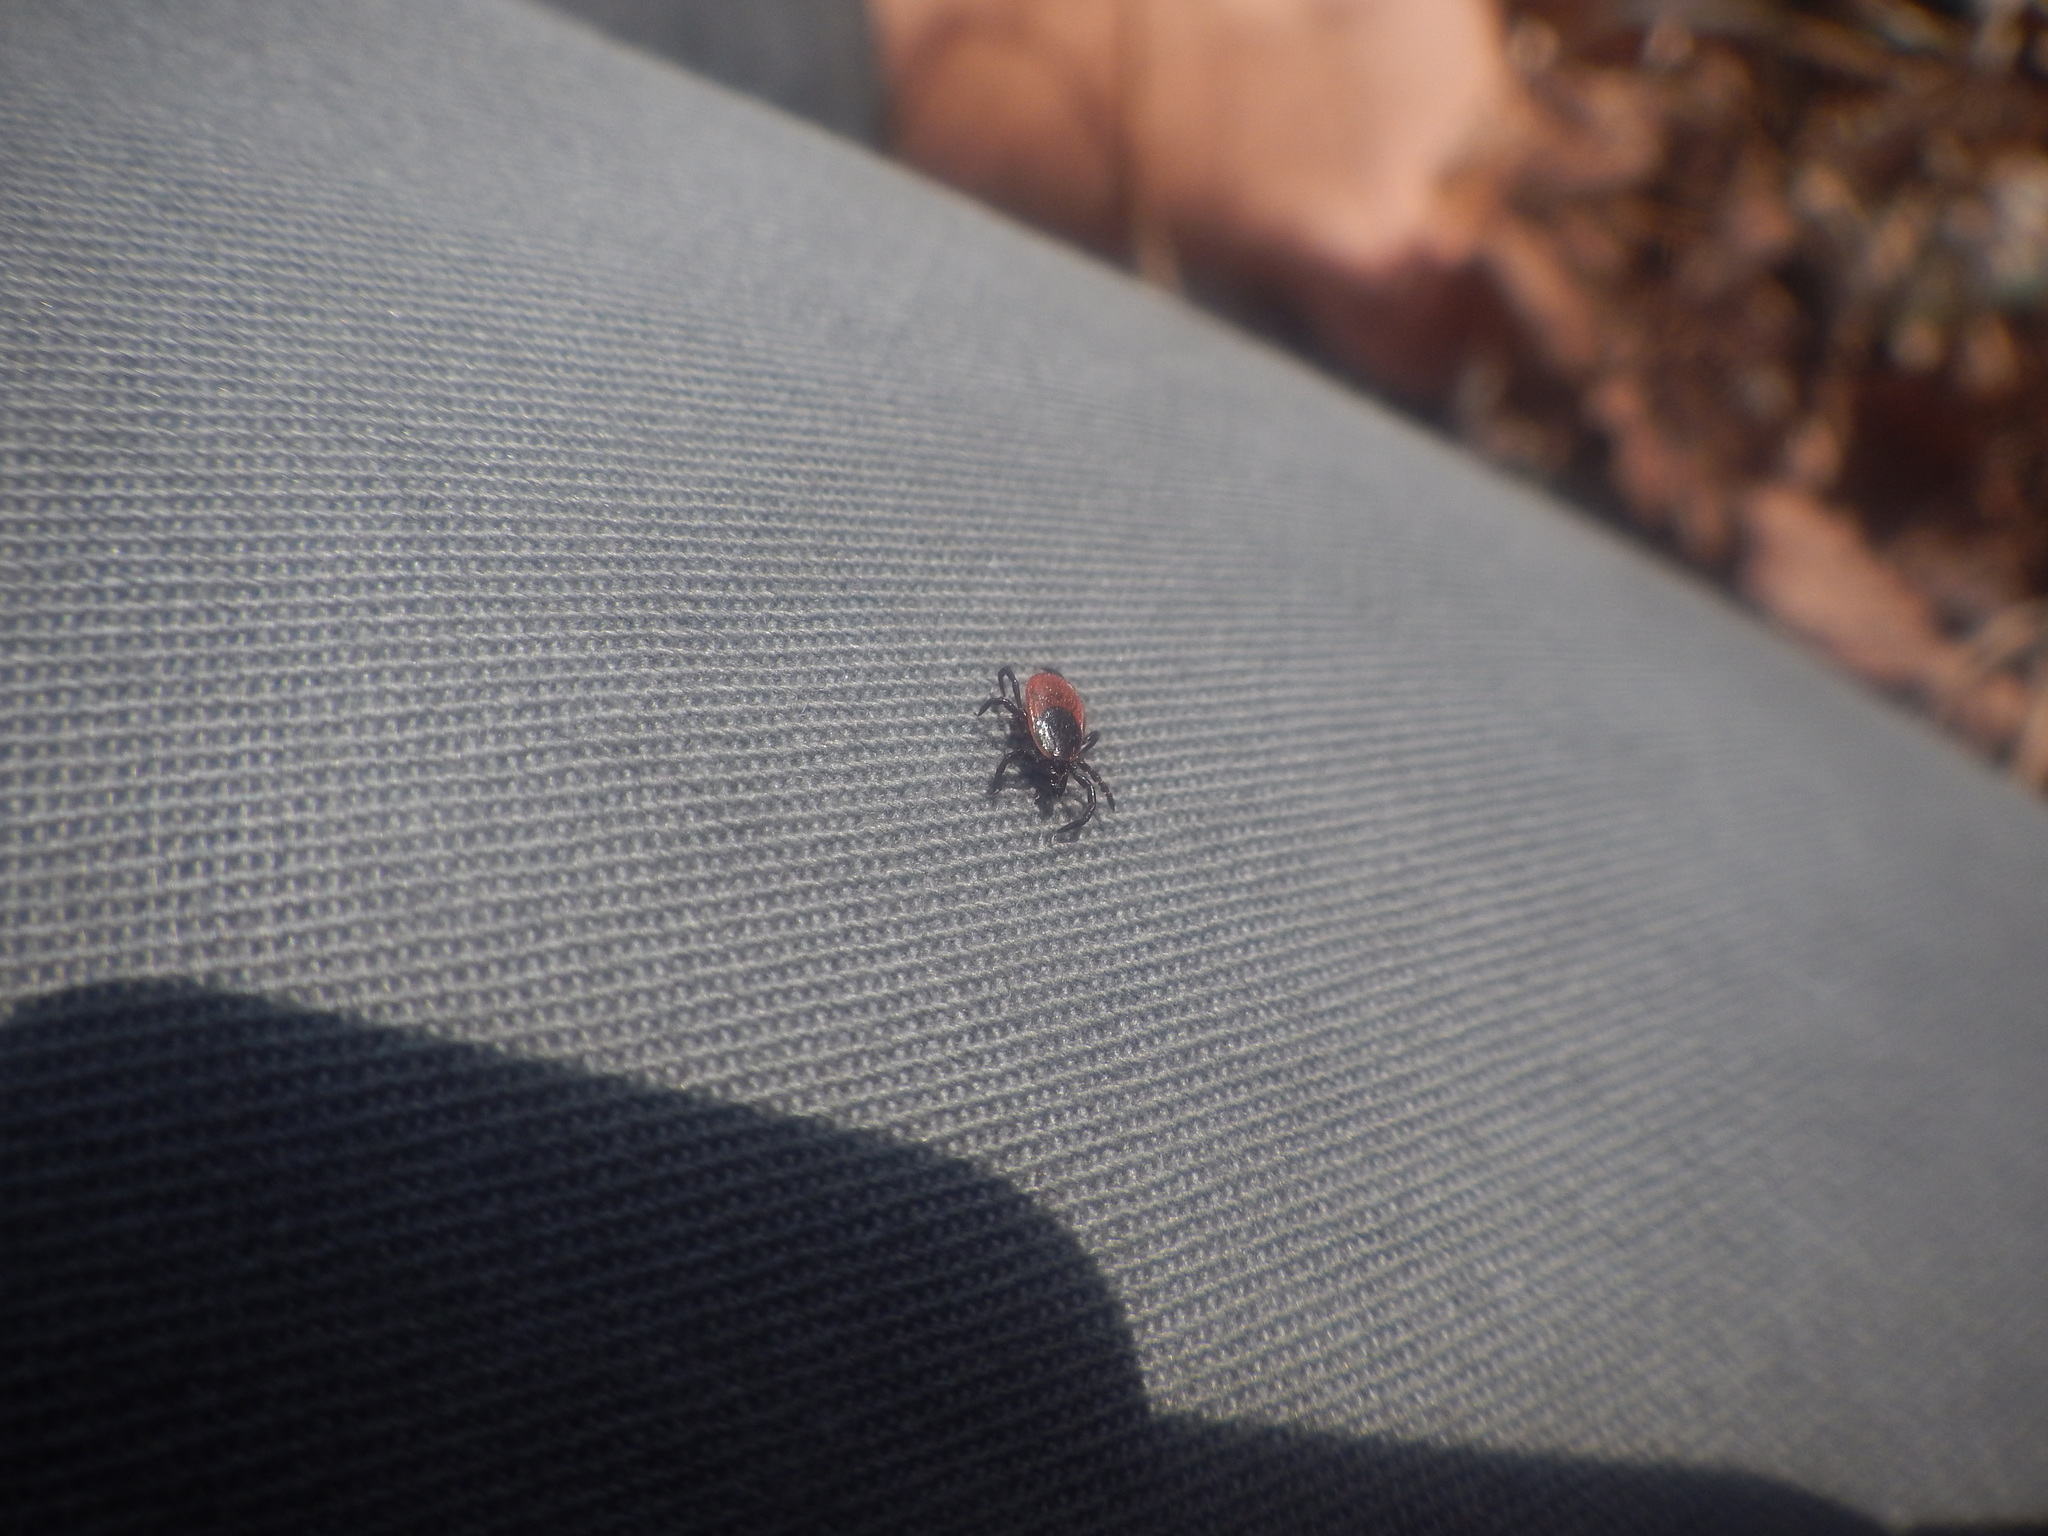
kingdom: Animalia
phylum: Arthropoda
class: Arachnida
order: Ixodida
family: Ixodidae
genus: Ixodes
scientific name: Ixodes scapularis
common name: Black legged tick
